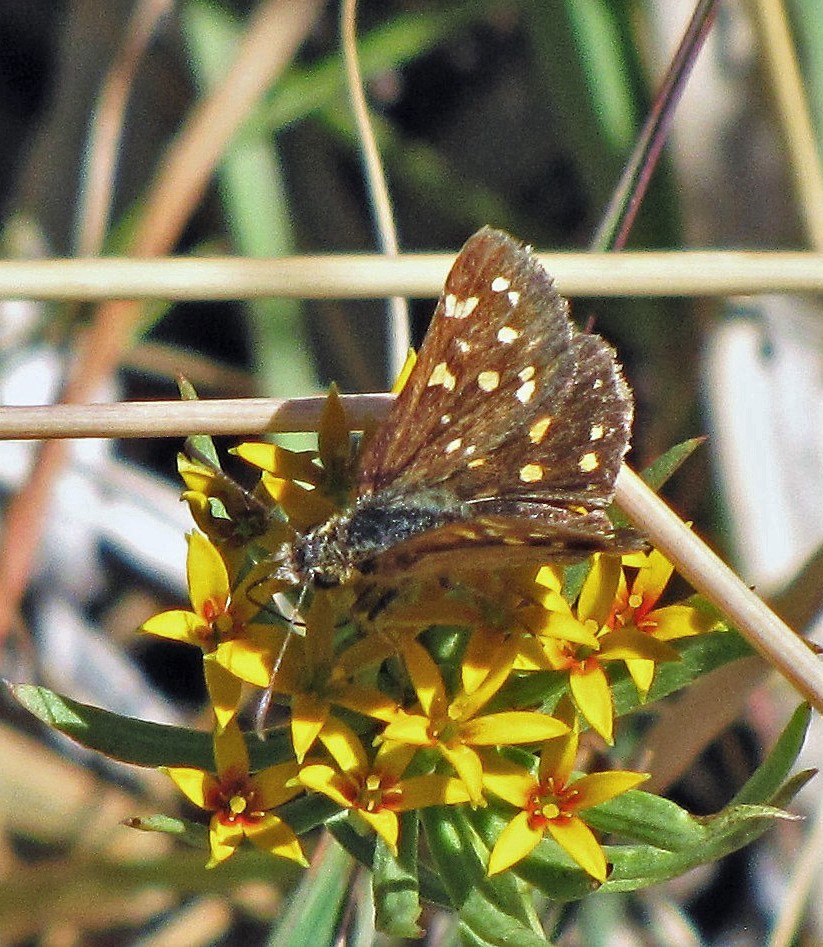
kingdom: Animalia
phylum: Arthropoda
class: Insecta
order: Lepidoptera
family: Hesperiidae
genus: Butleria
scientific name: Butleria quilla
